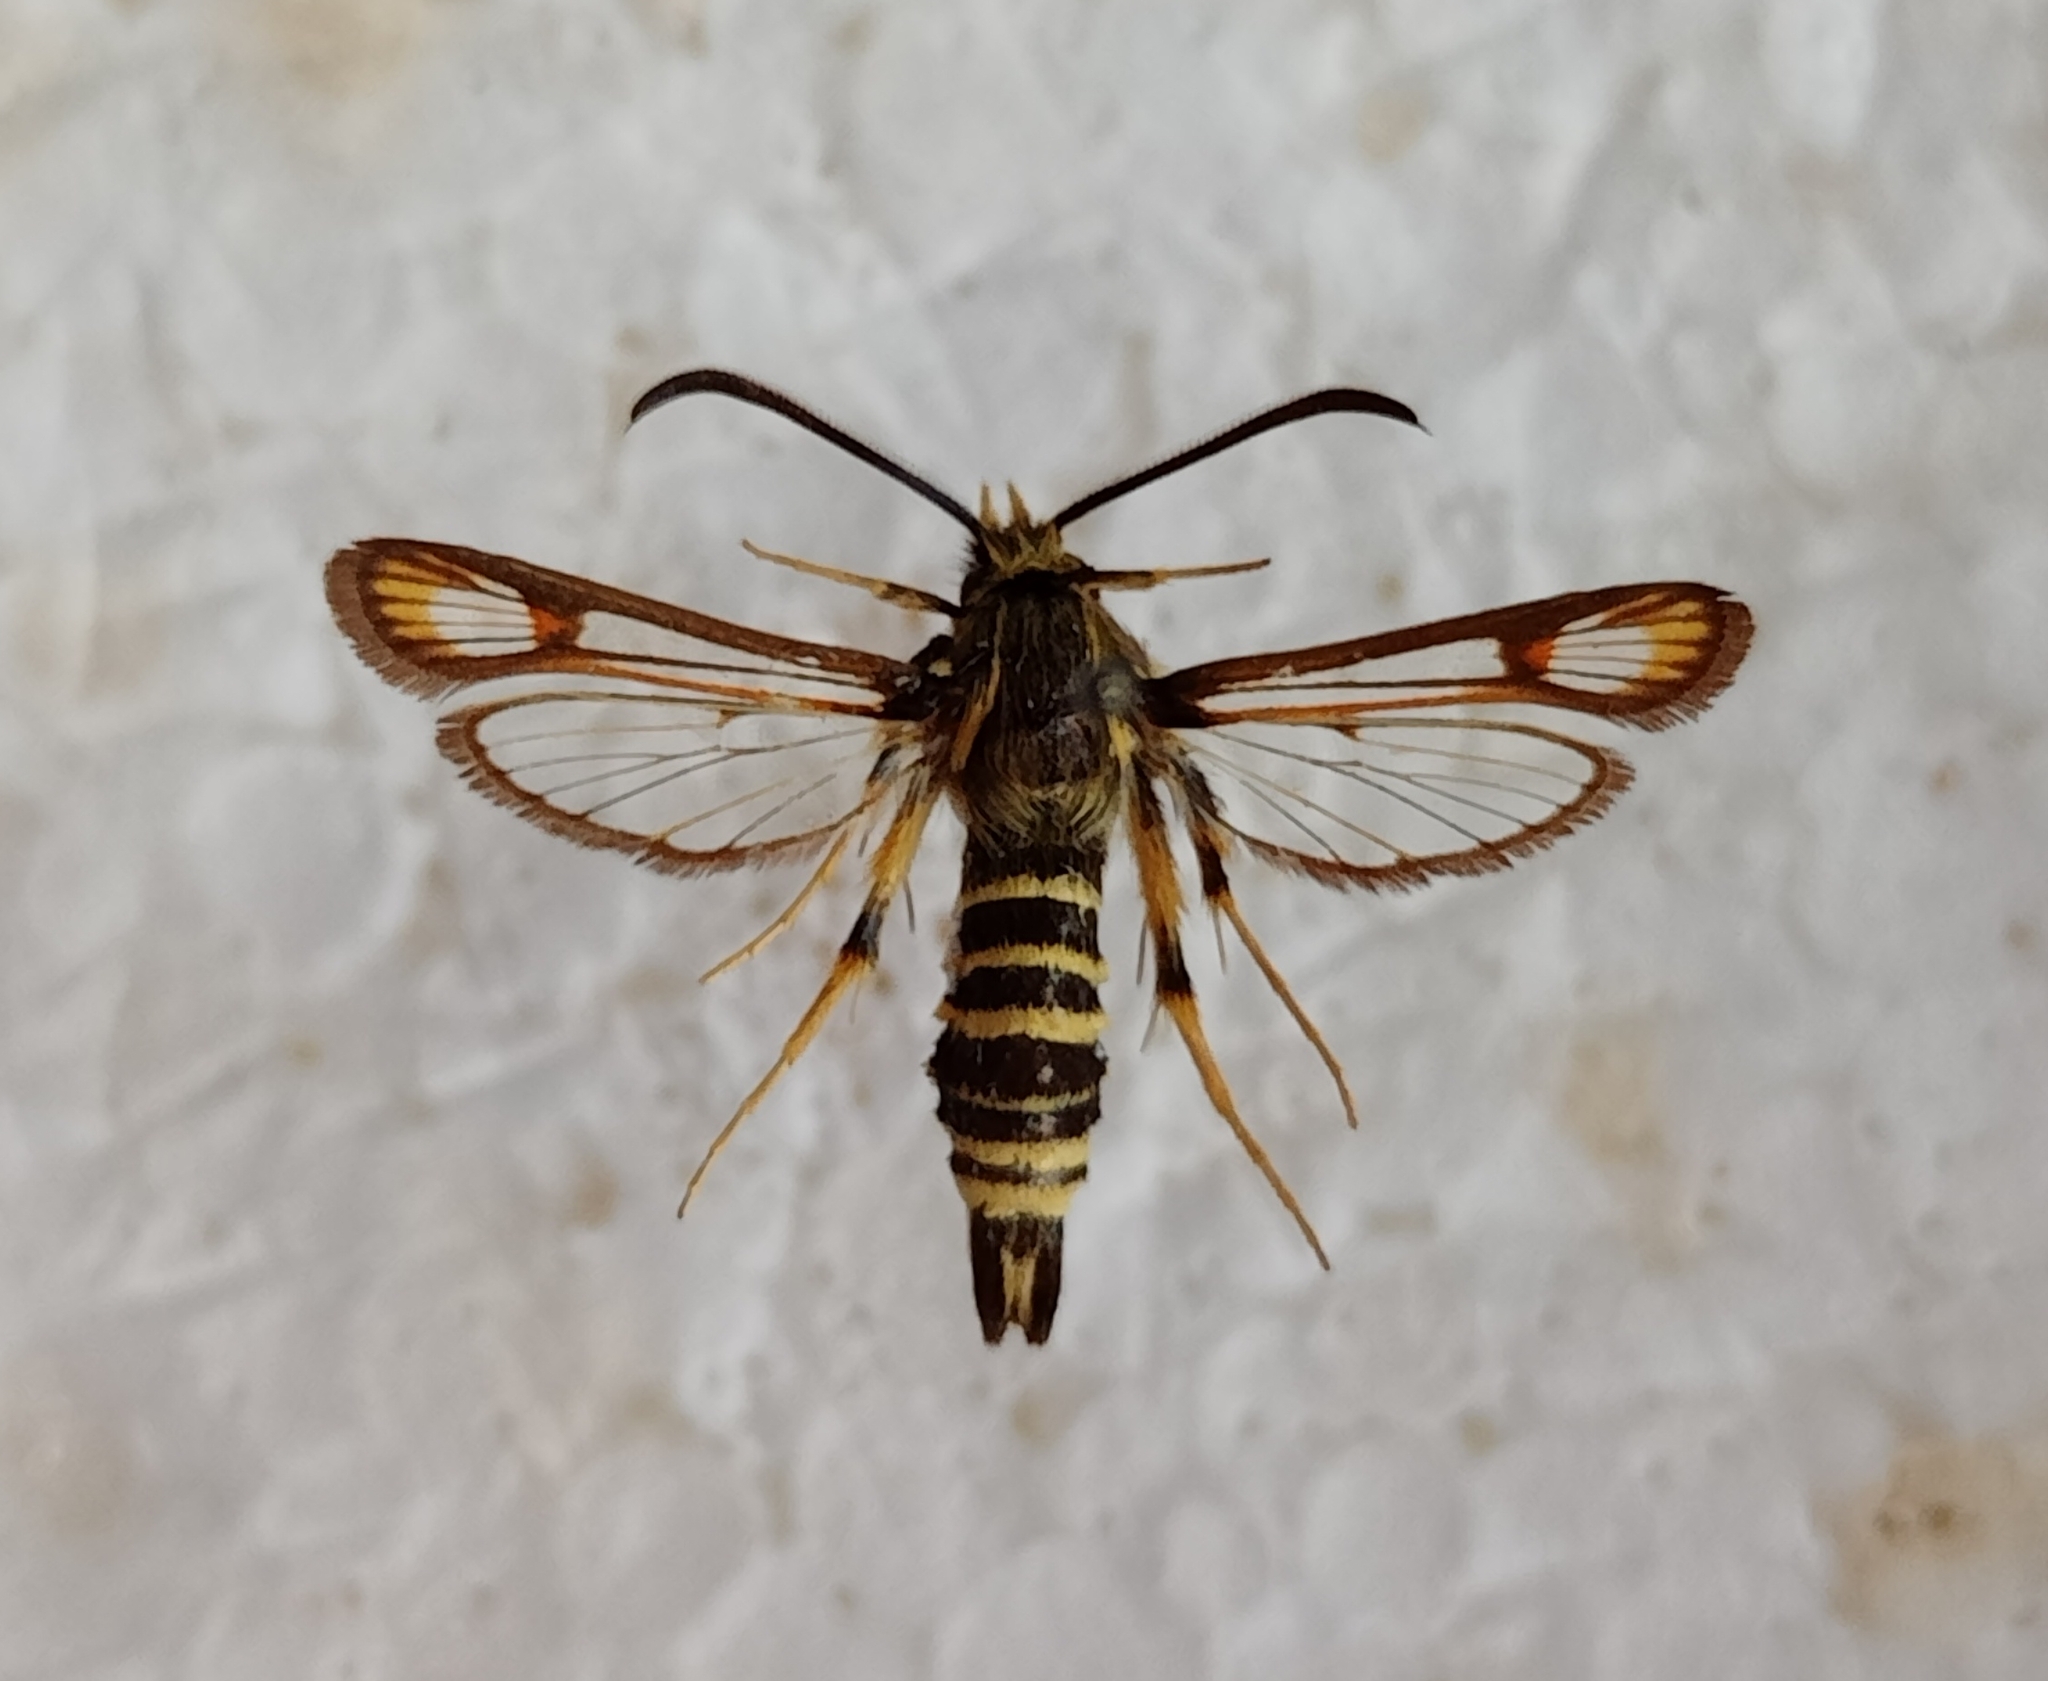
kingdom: Animalia
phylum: Arthropoda
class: Insecta
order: Lepidoptera
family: Sesiidae
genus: Bembecia
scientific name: Bembecia ichneumoniformis
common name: Six-belted clearwing
